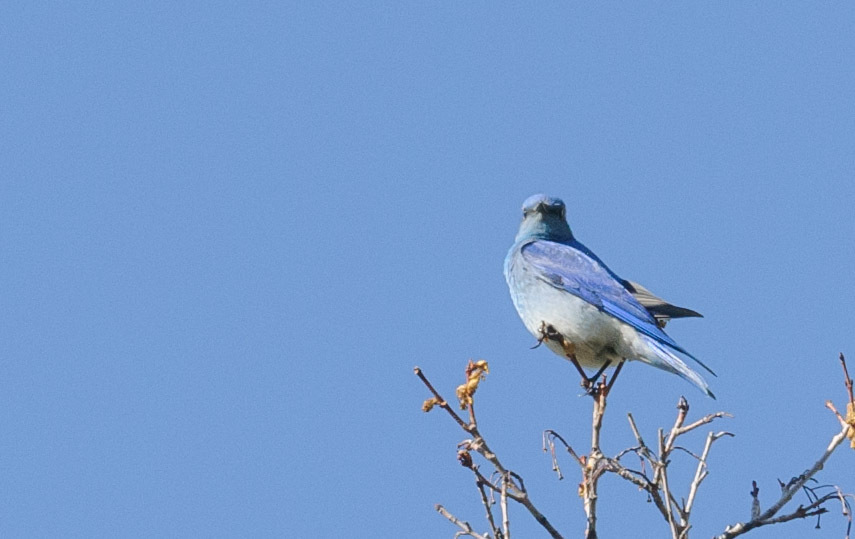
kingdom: Animalia
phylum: Chordata
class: Aves
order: Passeriformes
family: Turdidae
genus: Sialia
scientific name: Sialia currucoides
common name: Mountain bluebird
